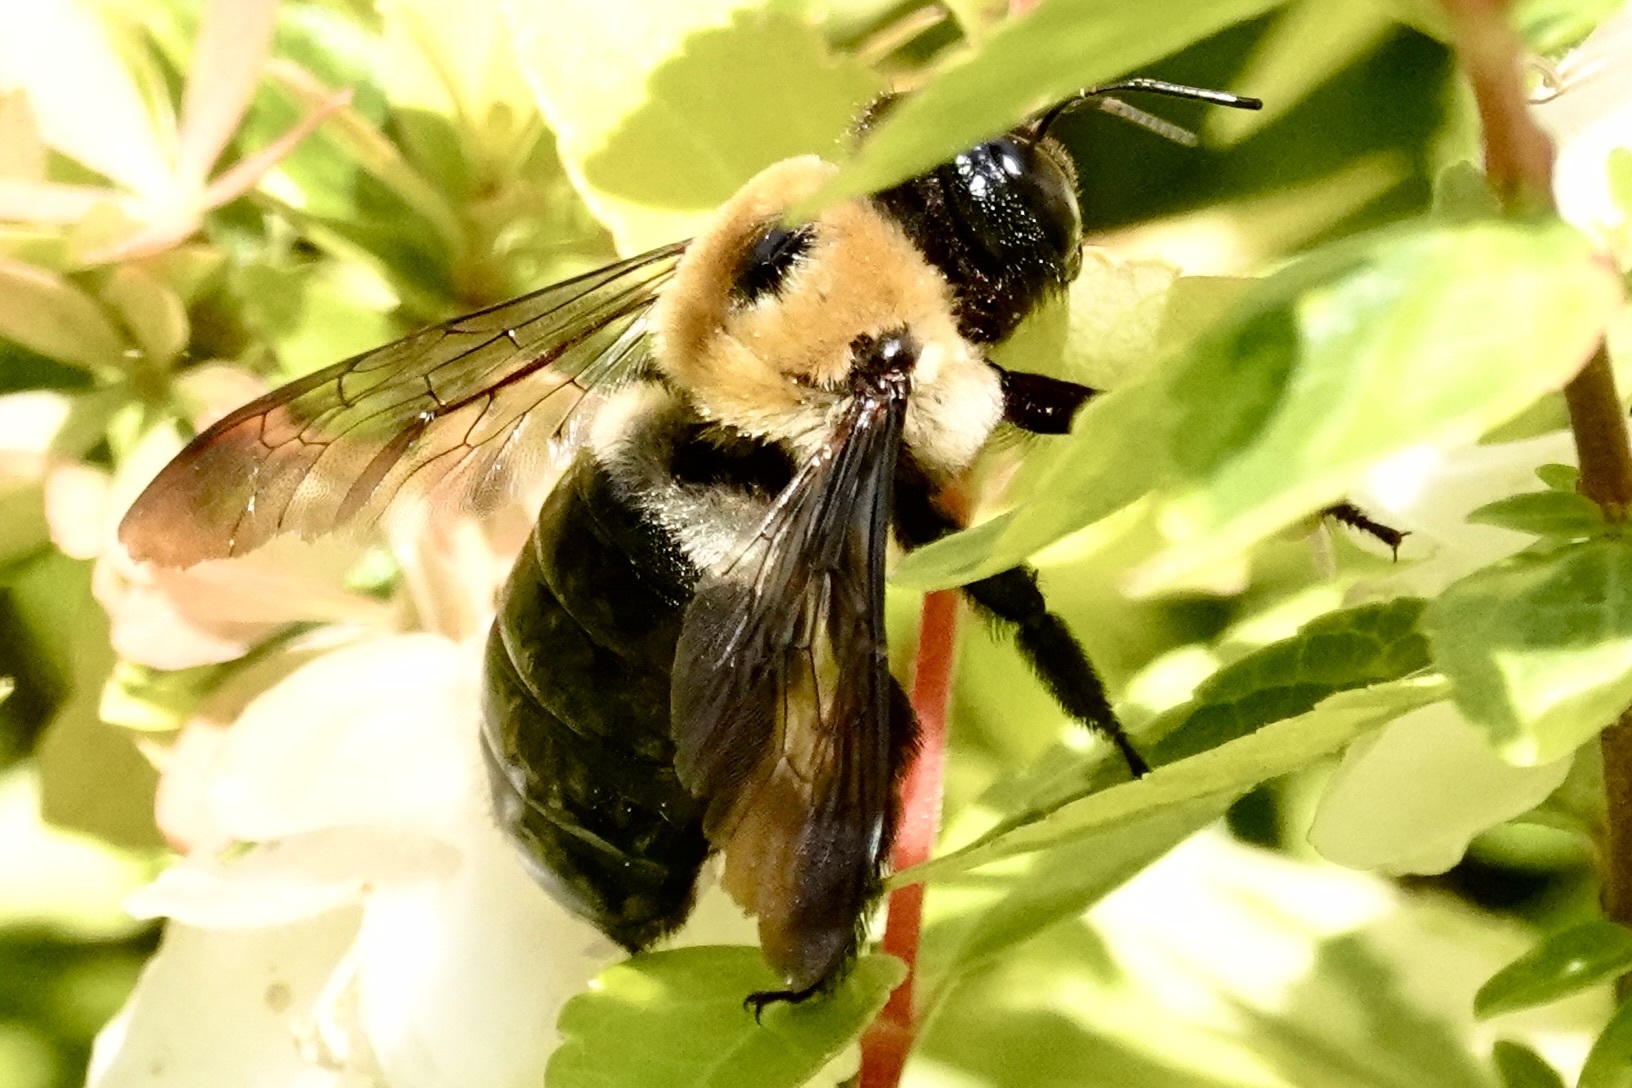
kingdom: Animalia
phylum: Arthropoda
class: Insecta
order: Hymenoptera
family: Apidae
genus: Xylocopa
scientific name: Xylocopa virginica
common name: Carpenter bee
